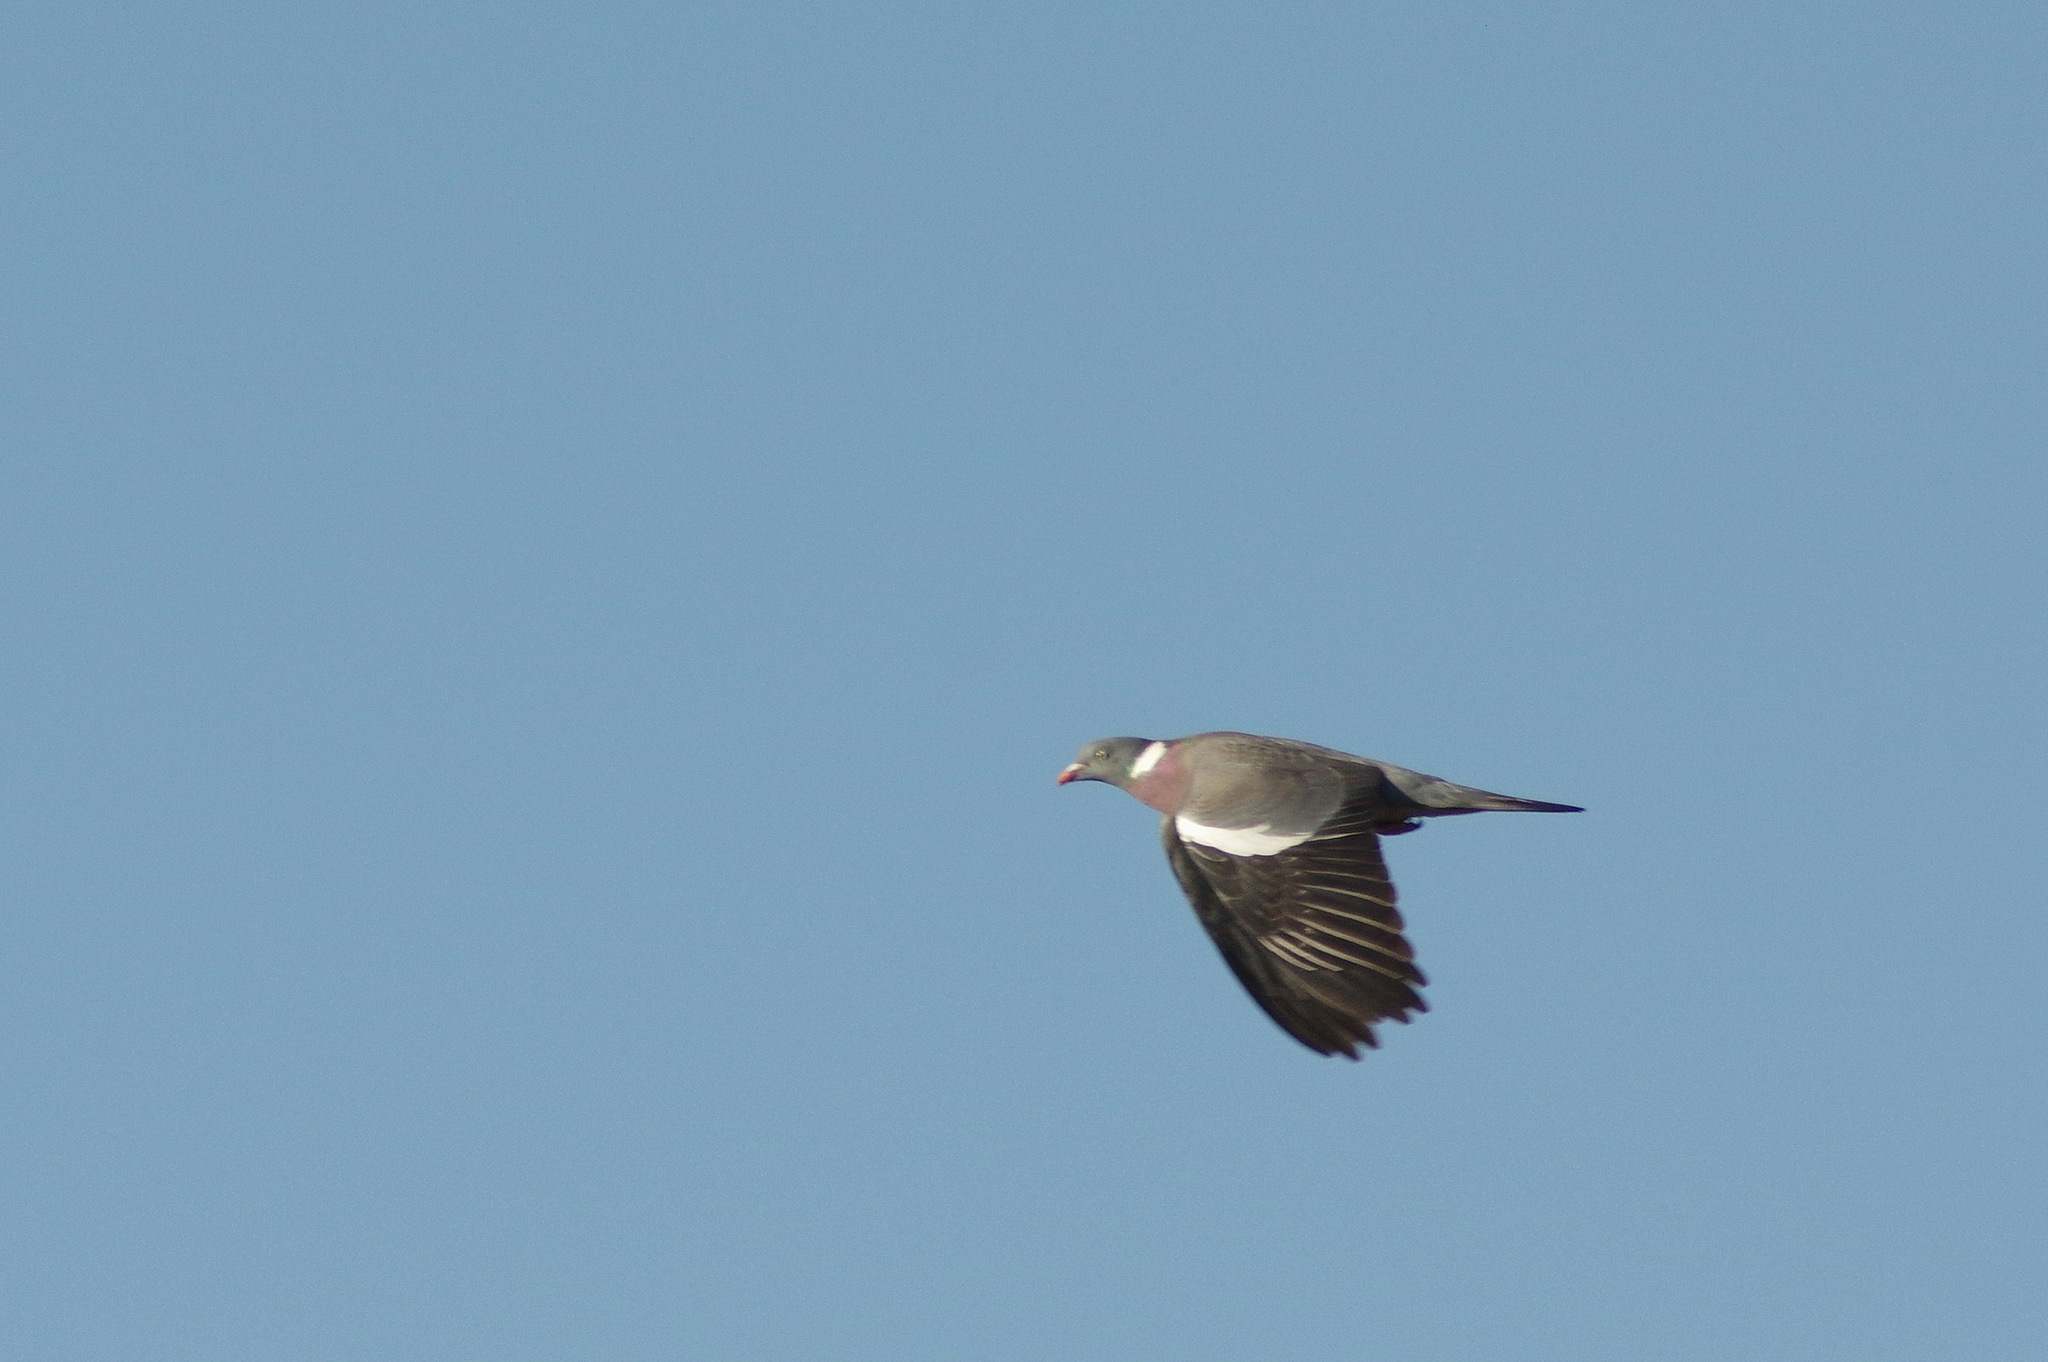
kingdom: Animalia
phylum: Chordata
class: Aves
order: Columbiformes
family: Columbidae
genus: Columba
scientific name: Columba palumbus
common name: Common wood pigeon
